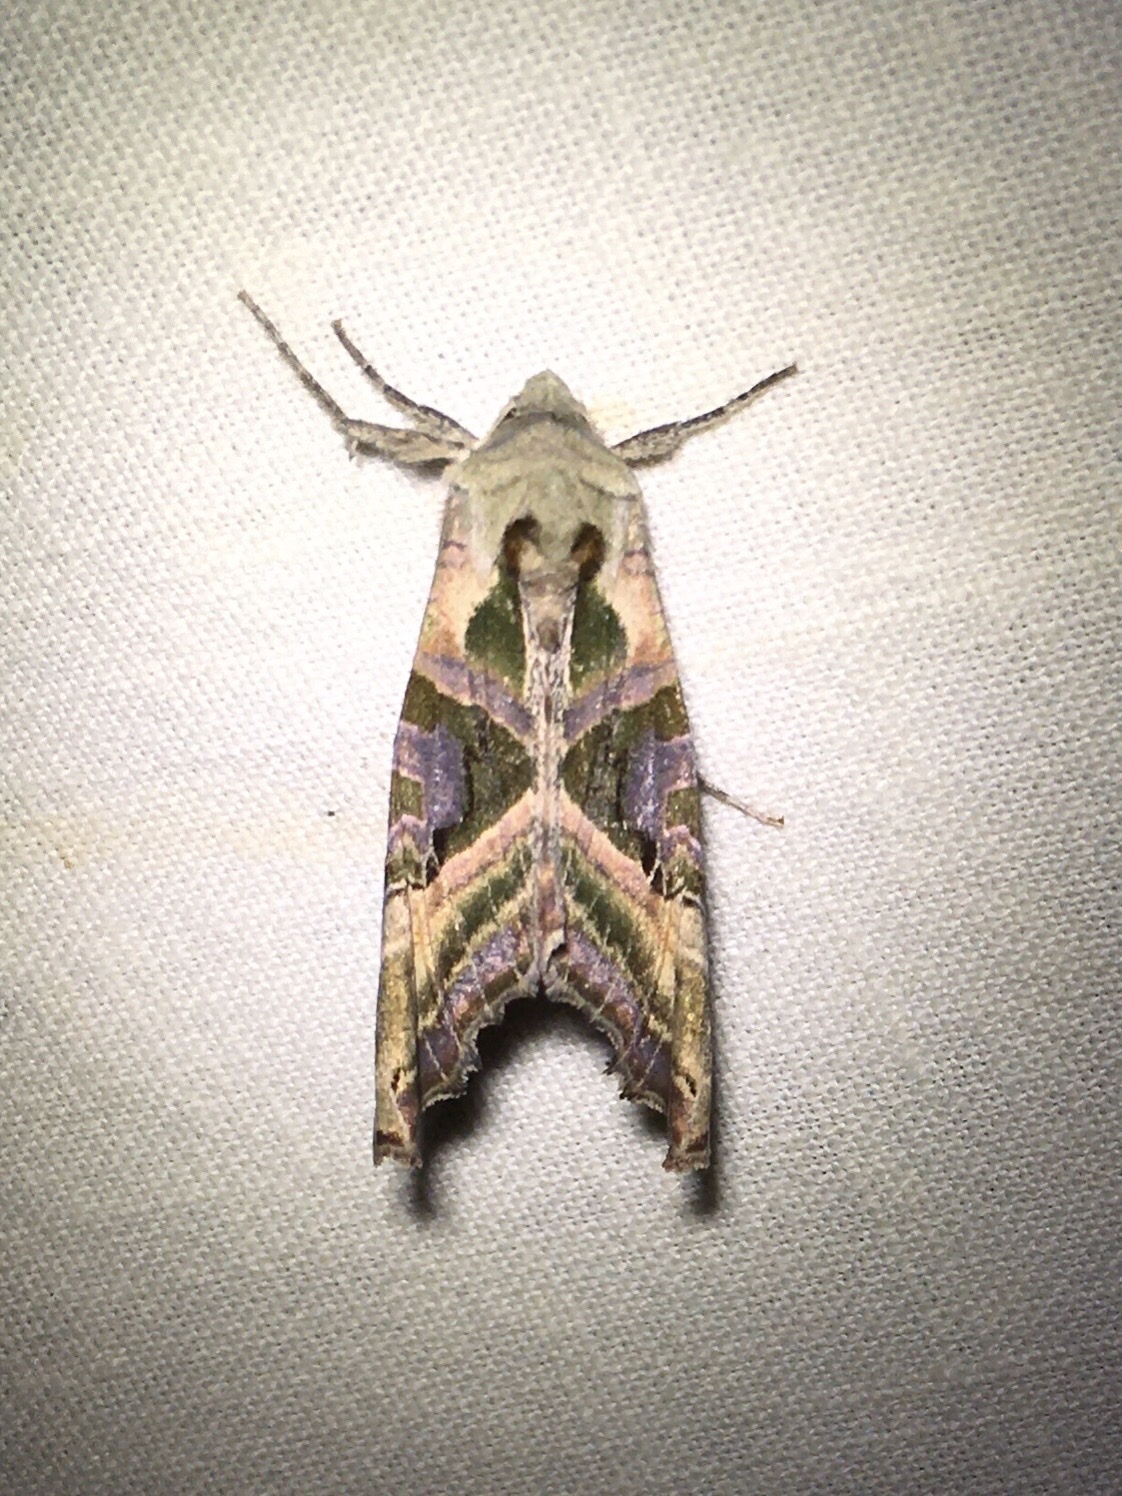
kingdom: Animalia
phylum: Arthropoda
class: Insecta
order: Lepidoptera
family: Noctuidae
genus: Phlogophora
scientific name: Phlogophora iris
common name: Olive angle shades
